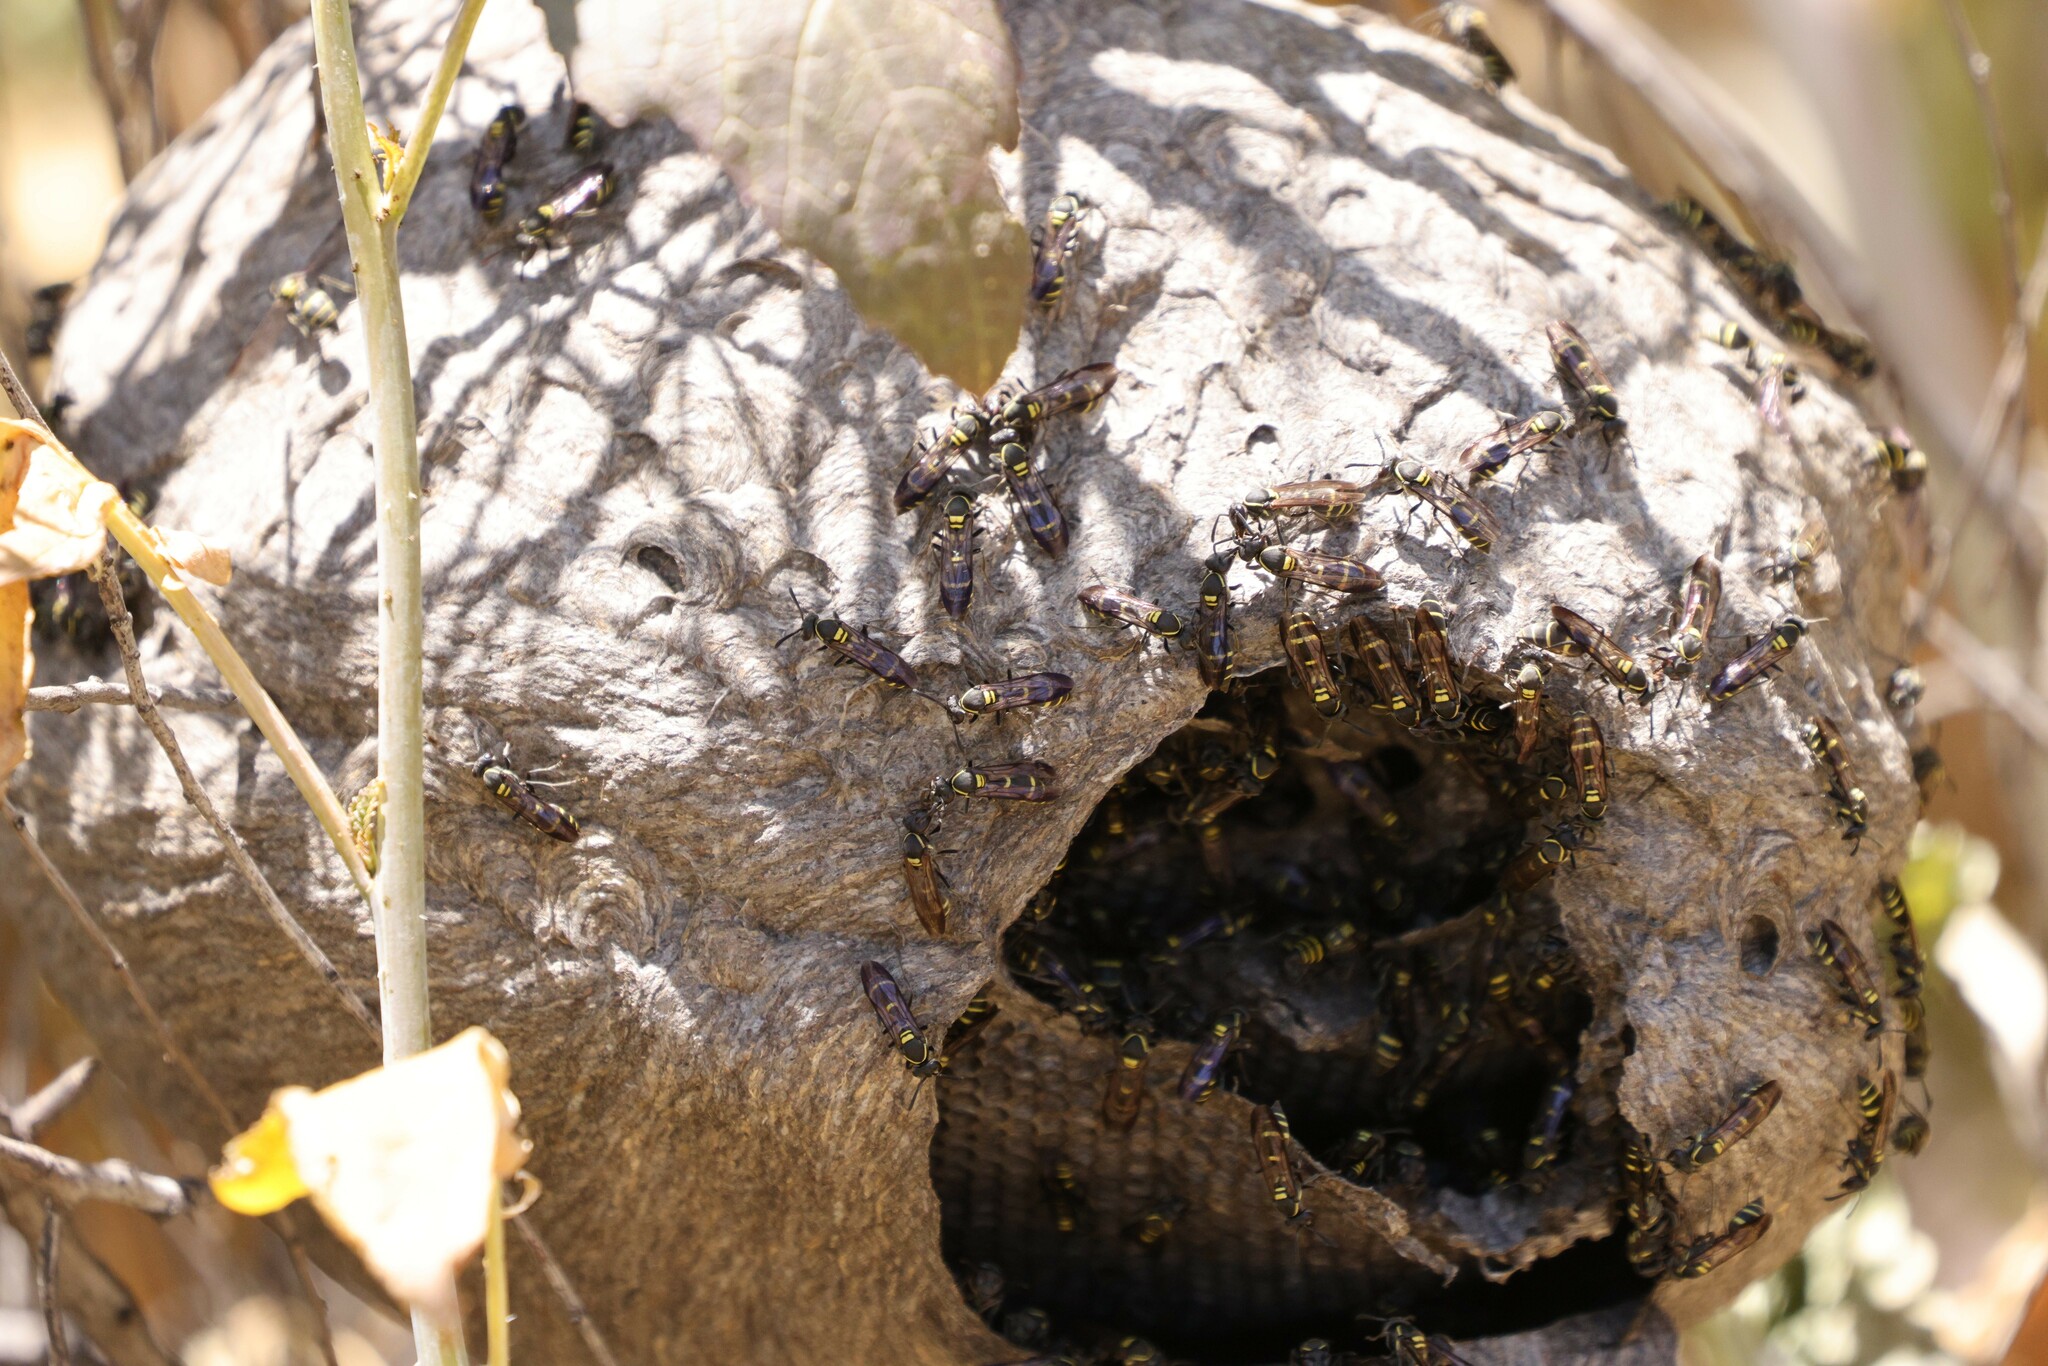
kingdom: Animalia
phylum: Arthropoda
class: Insecta
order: Hymenoptera
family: Eumenidae
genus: Polybia
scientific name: Polybia ruficeps
